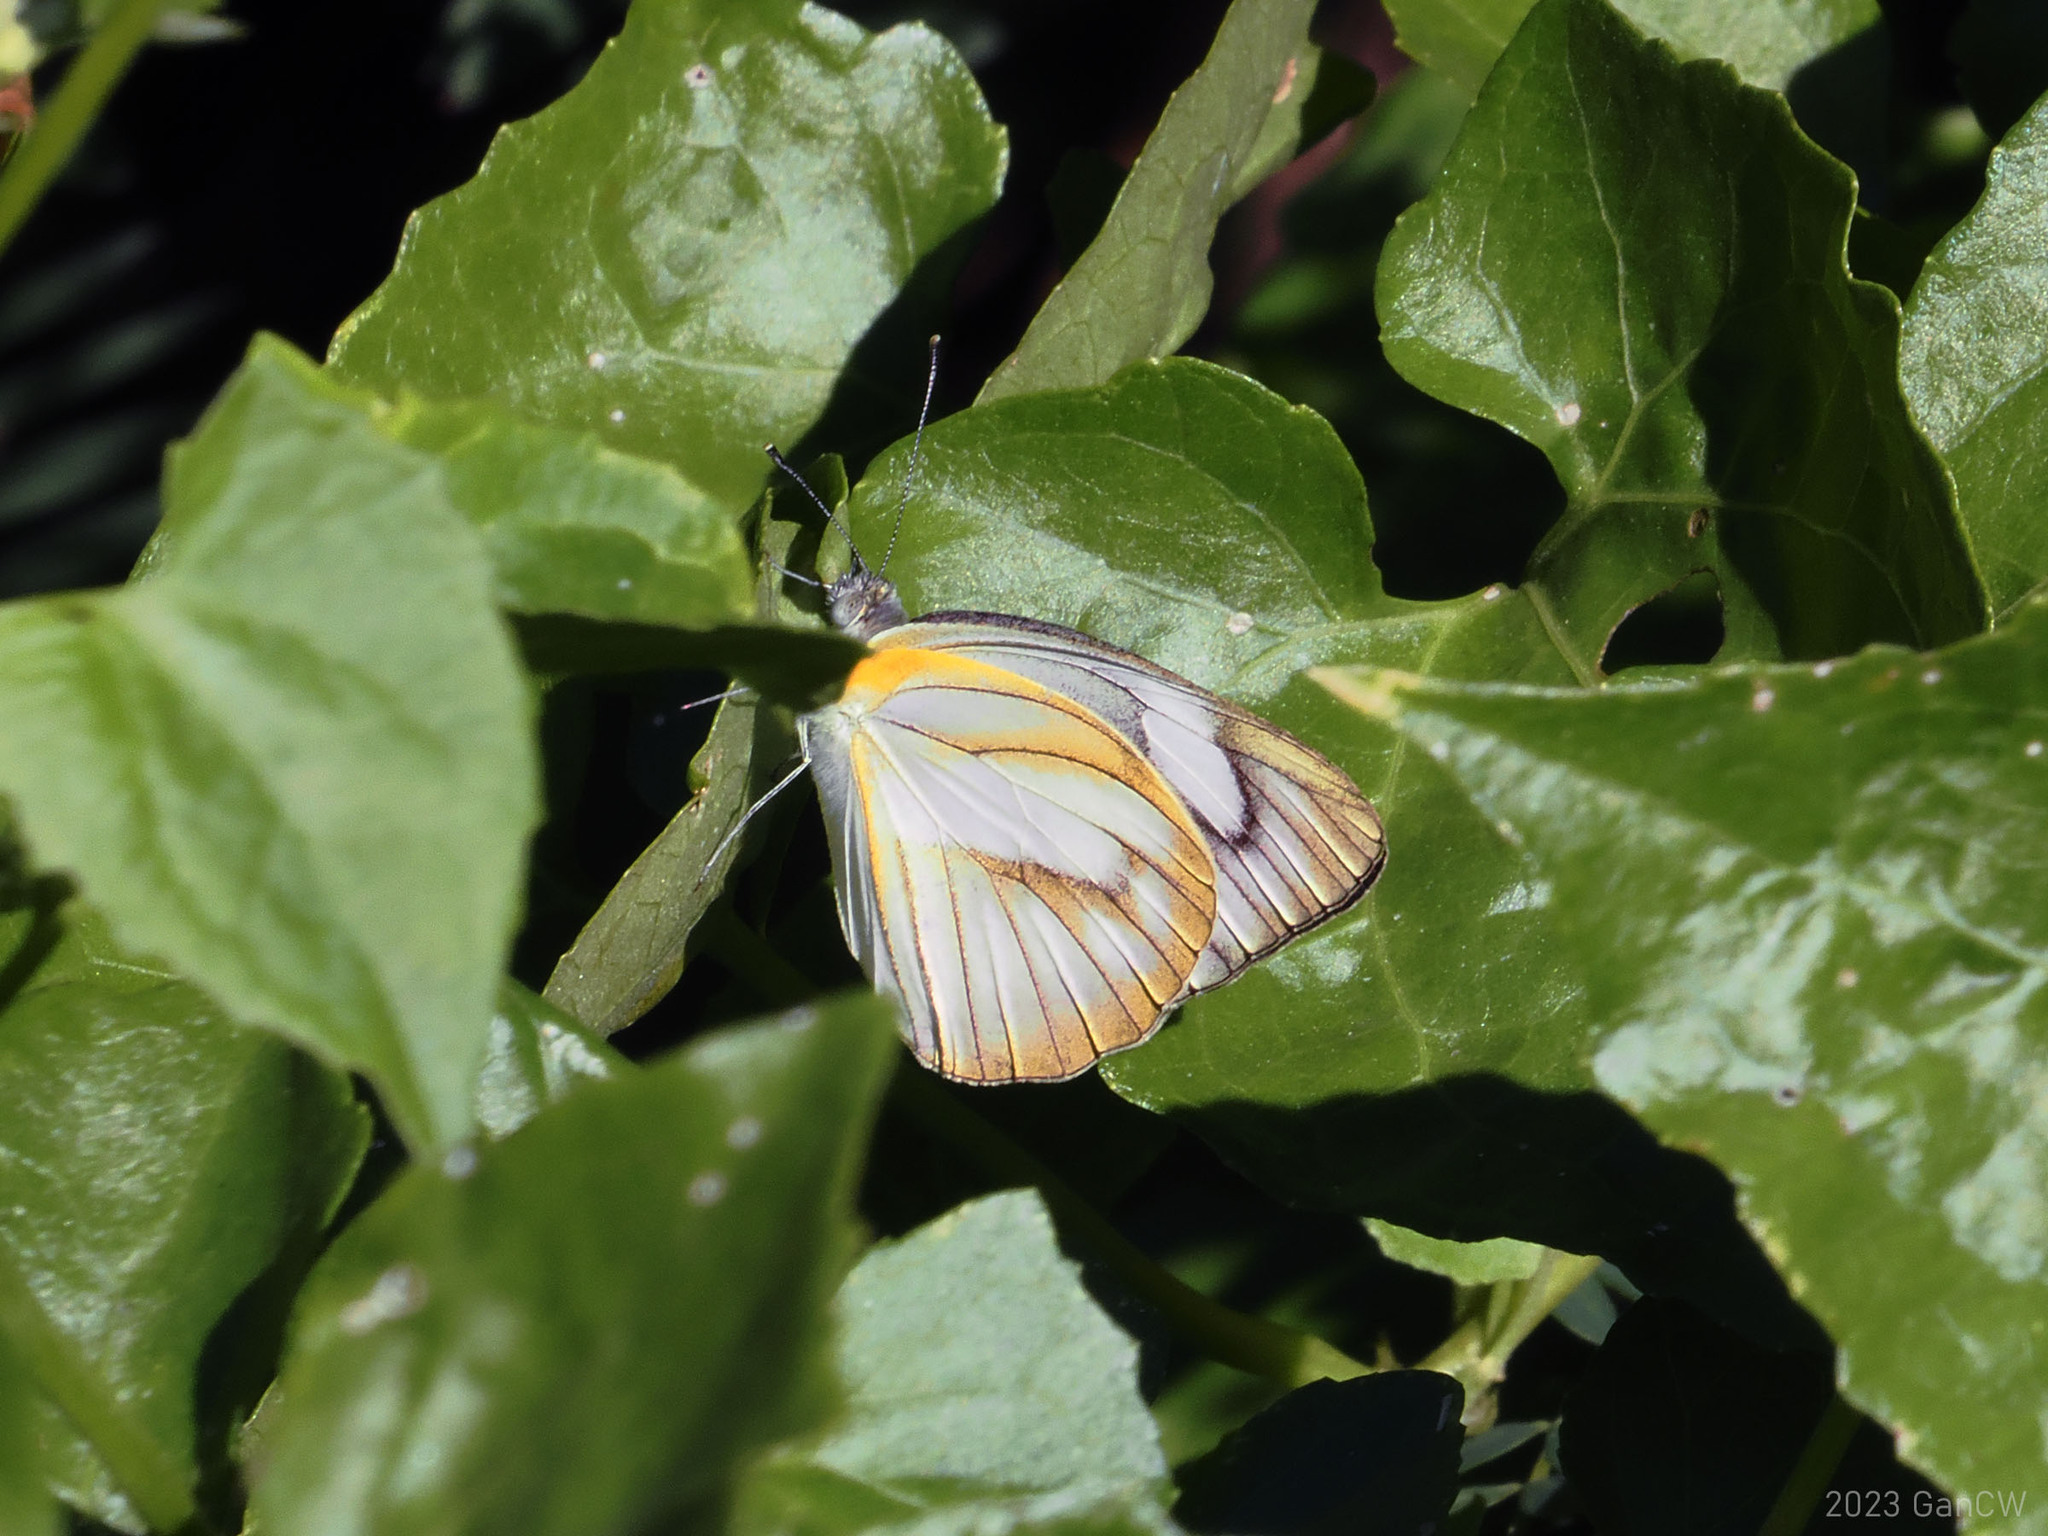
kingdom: Animalia
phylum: Arthropoda
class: Insecta
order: Lepidoptera
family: Pieridae
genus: Appias
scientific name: Appias libythea
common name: Striped albatross
